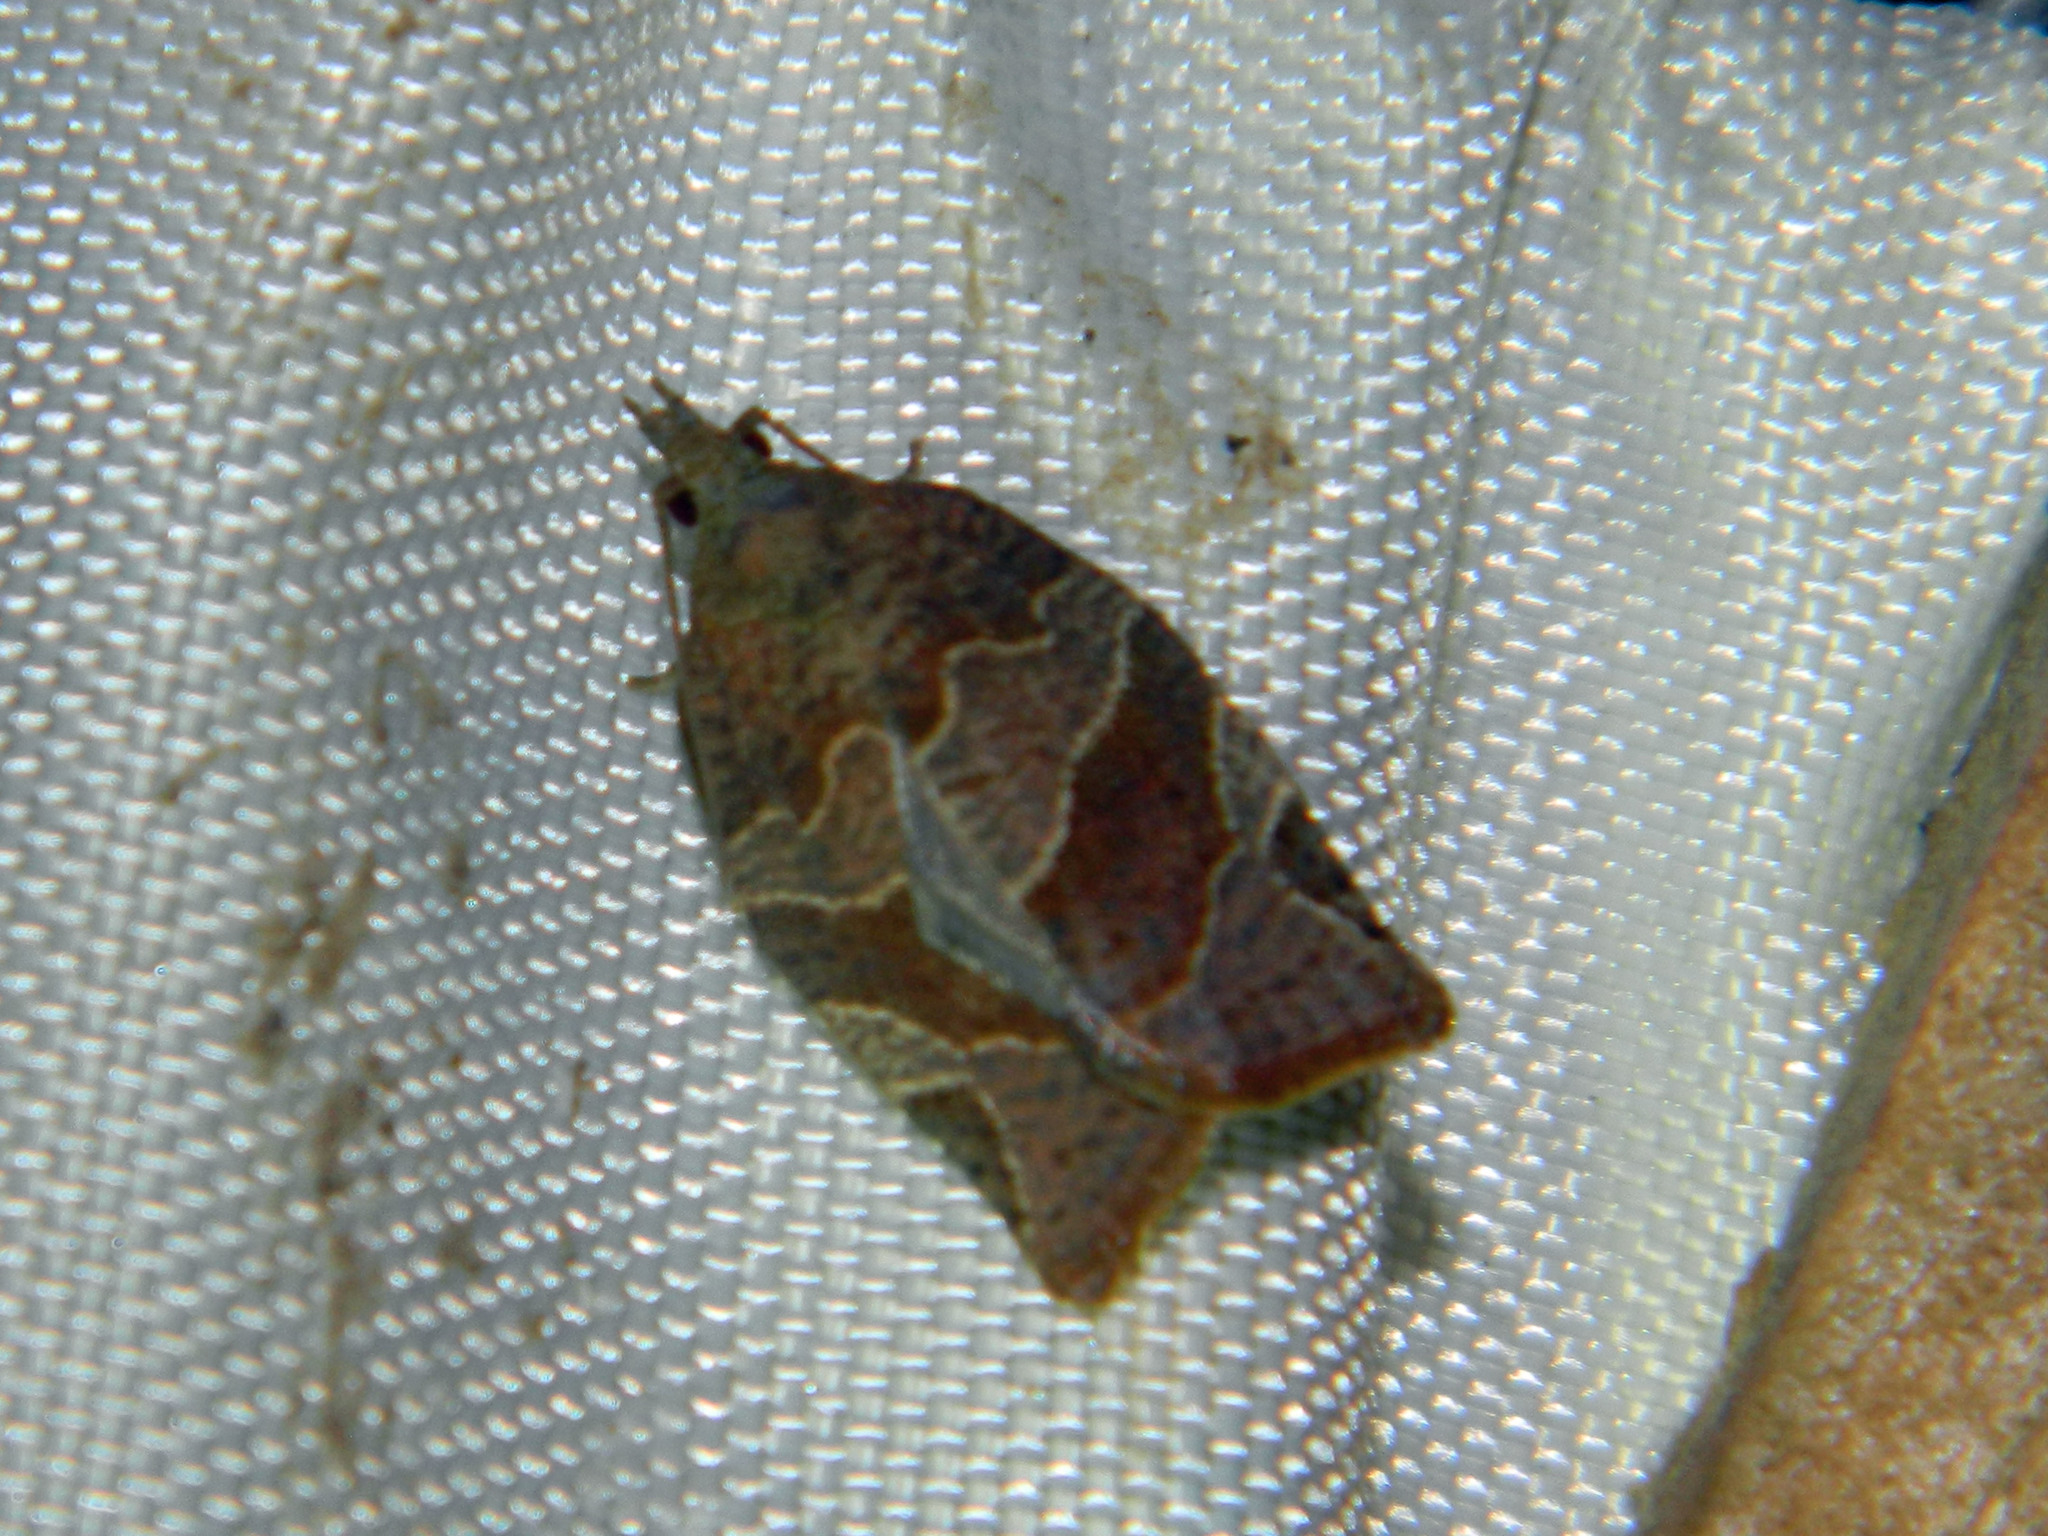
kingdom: Animalia
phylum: Arthropoda
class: Insecta
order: Lepidoptera
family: Tortricidae
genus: Pandemis
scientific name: Pandemis canadana
